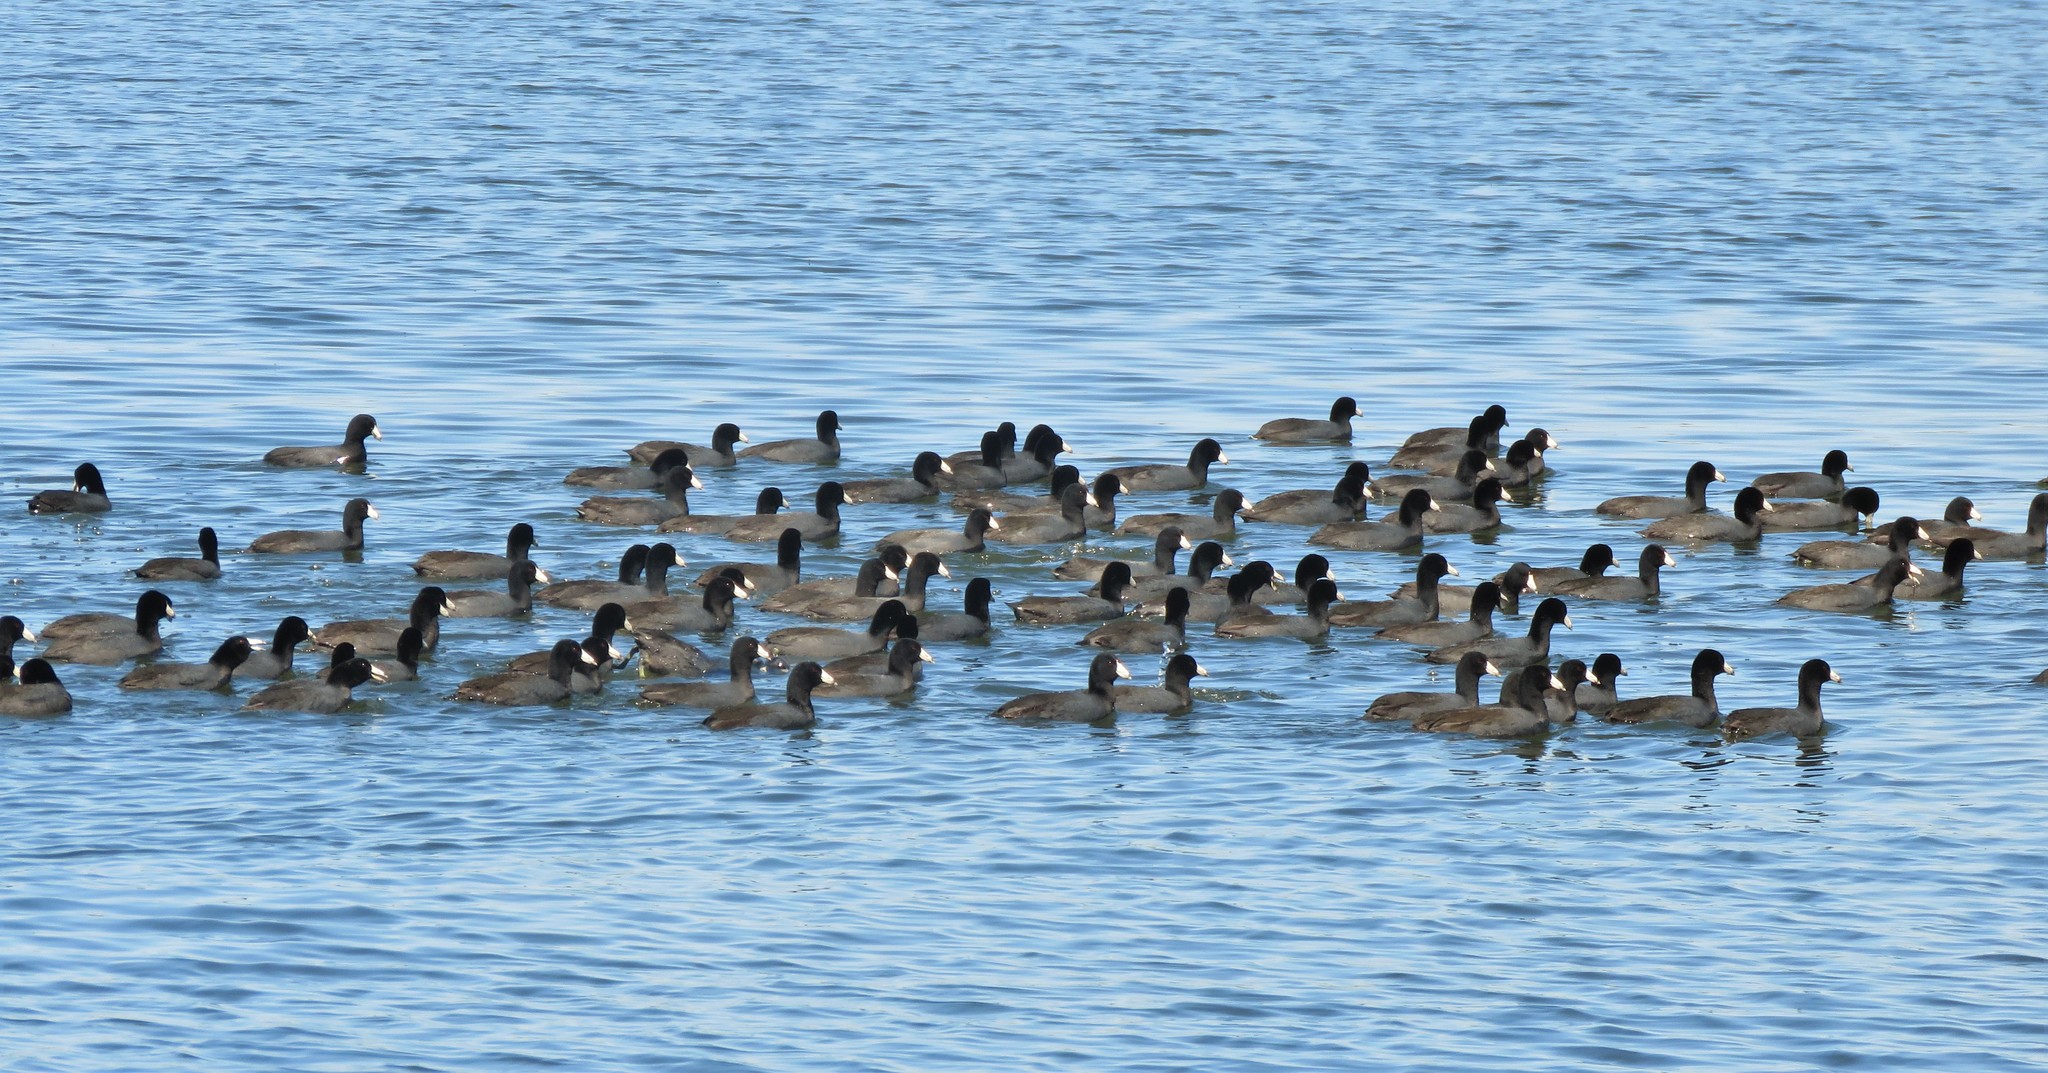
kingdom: Animalia
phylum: Chordata
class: Aves
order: Gruiformes
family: Rallidae
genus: Fulica
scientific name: Fulica americana
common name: American coot
